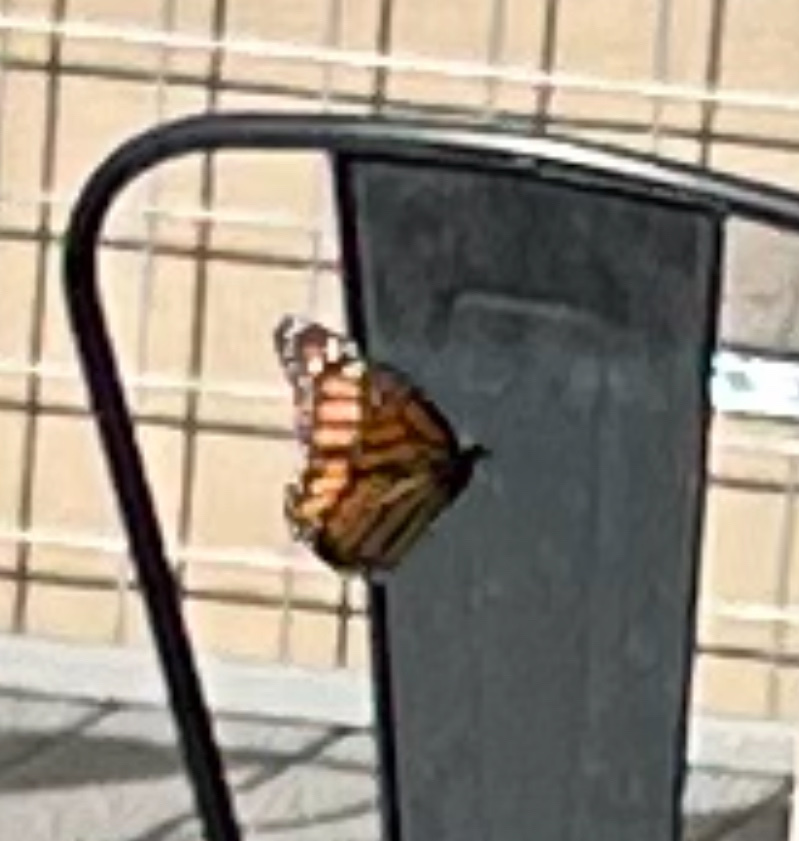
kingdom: Animalia
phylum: Arthropoda
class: Insecta
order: Lepidoptera
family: Nymphalidae
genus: Danaus
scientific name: Danaus plexippus
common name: Monarch
